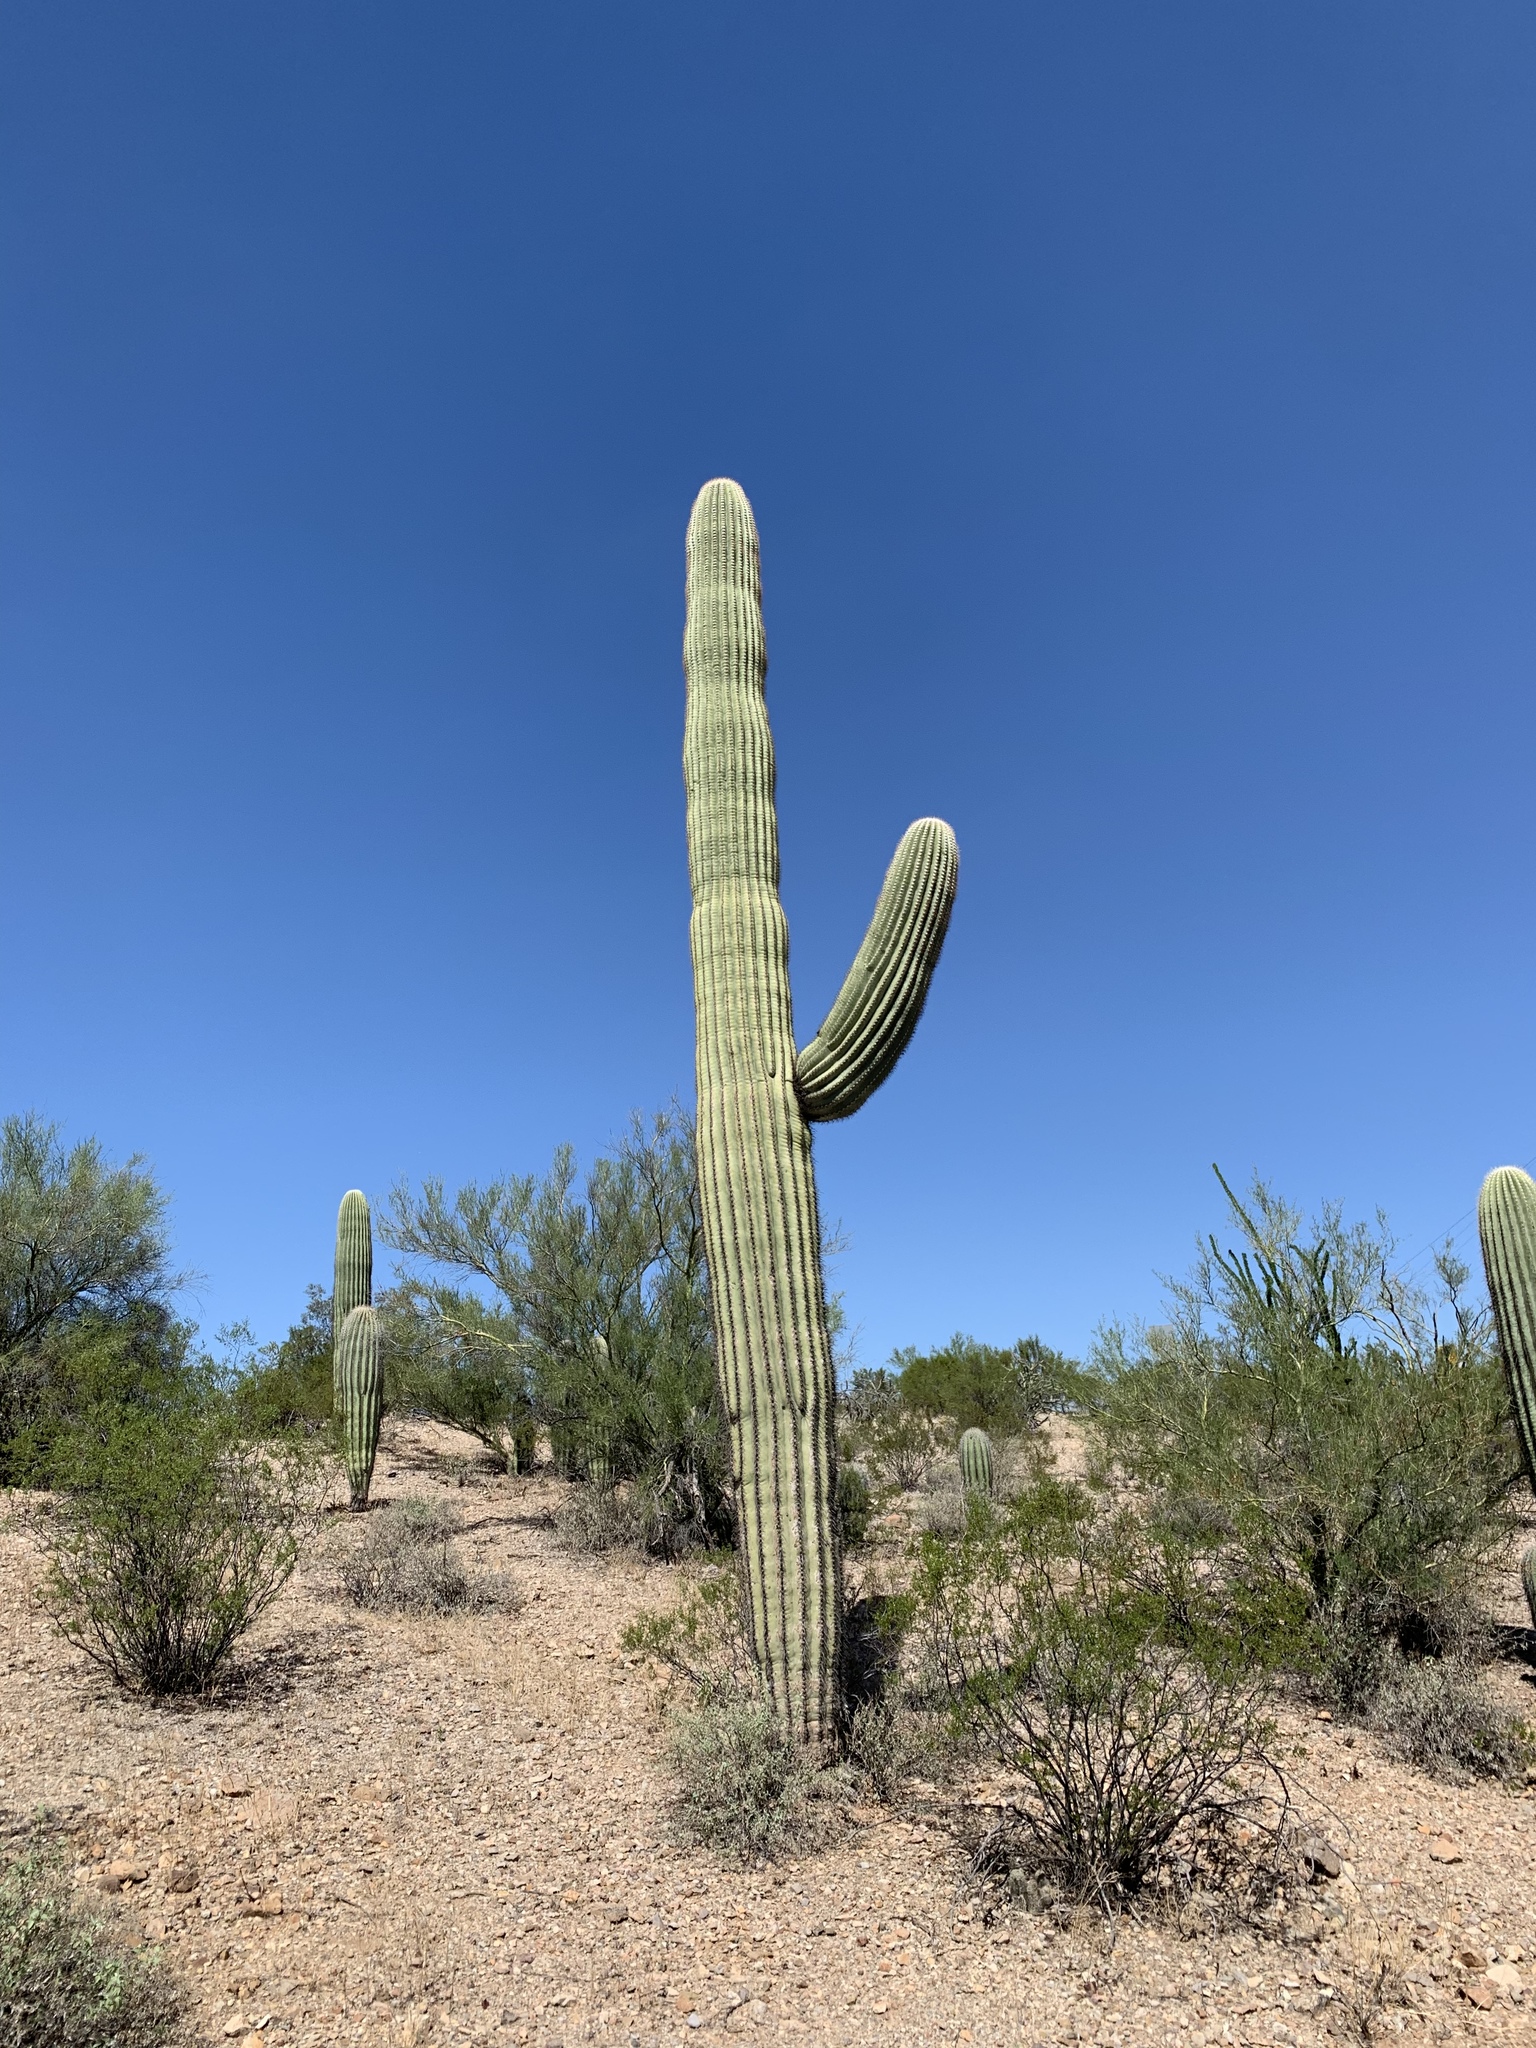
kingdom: Plantae
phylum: Tracheophyta
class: Magnoliopsida
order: Caryophyllales
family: Cactaceae
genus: Carnegiea
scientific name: Carnegiea gigantea
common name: Saguaro
